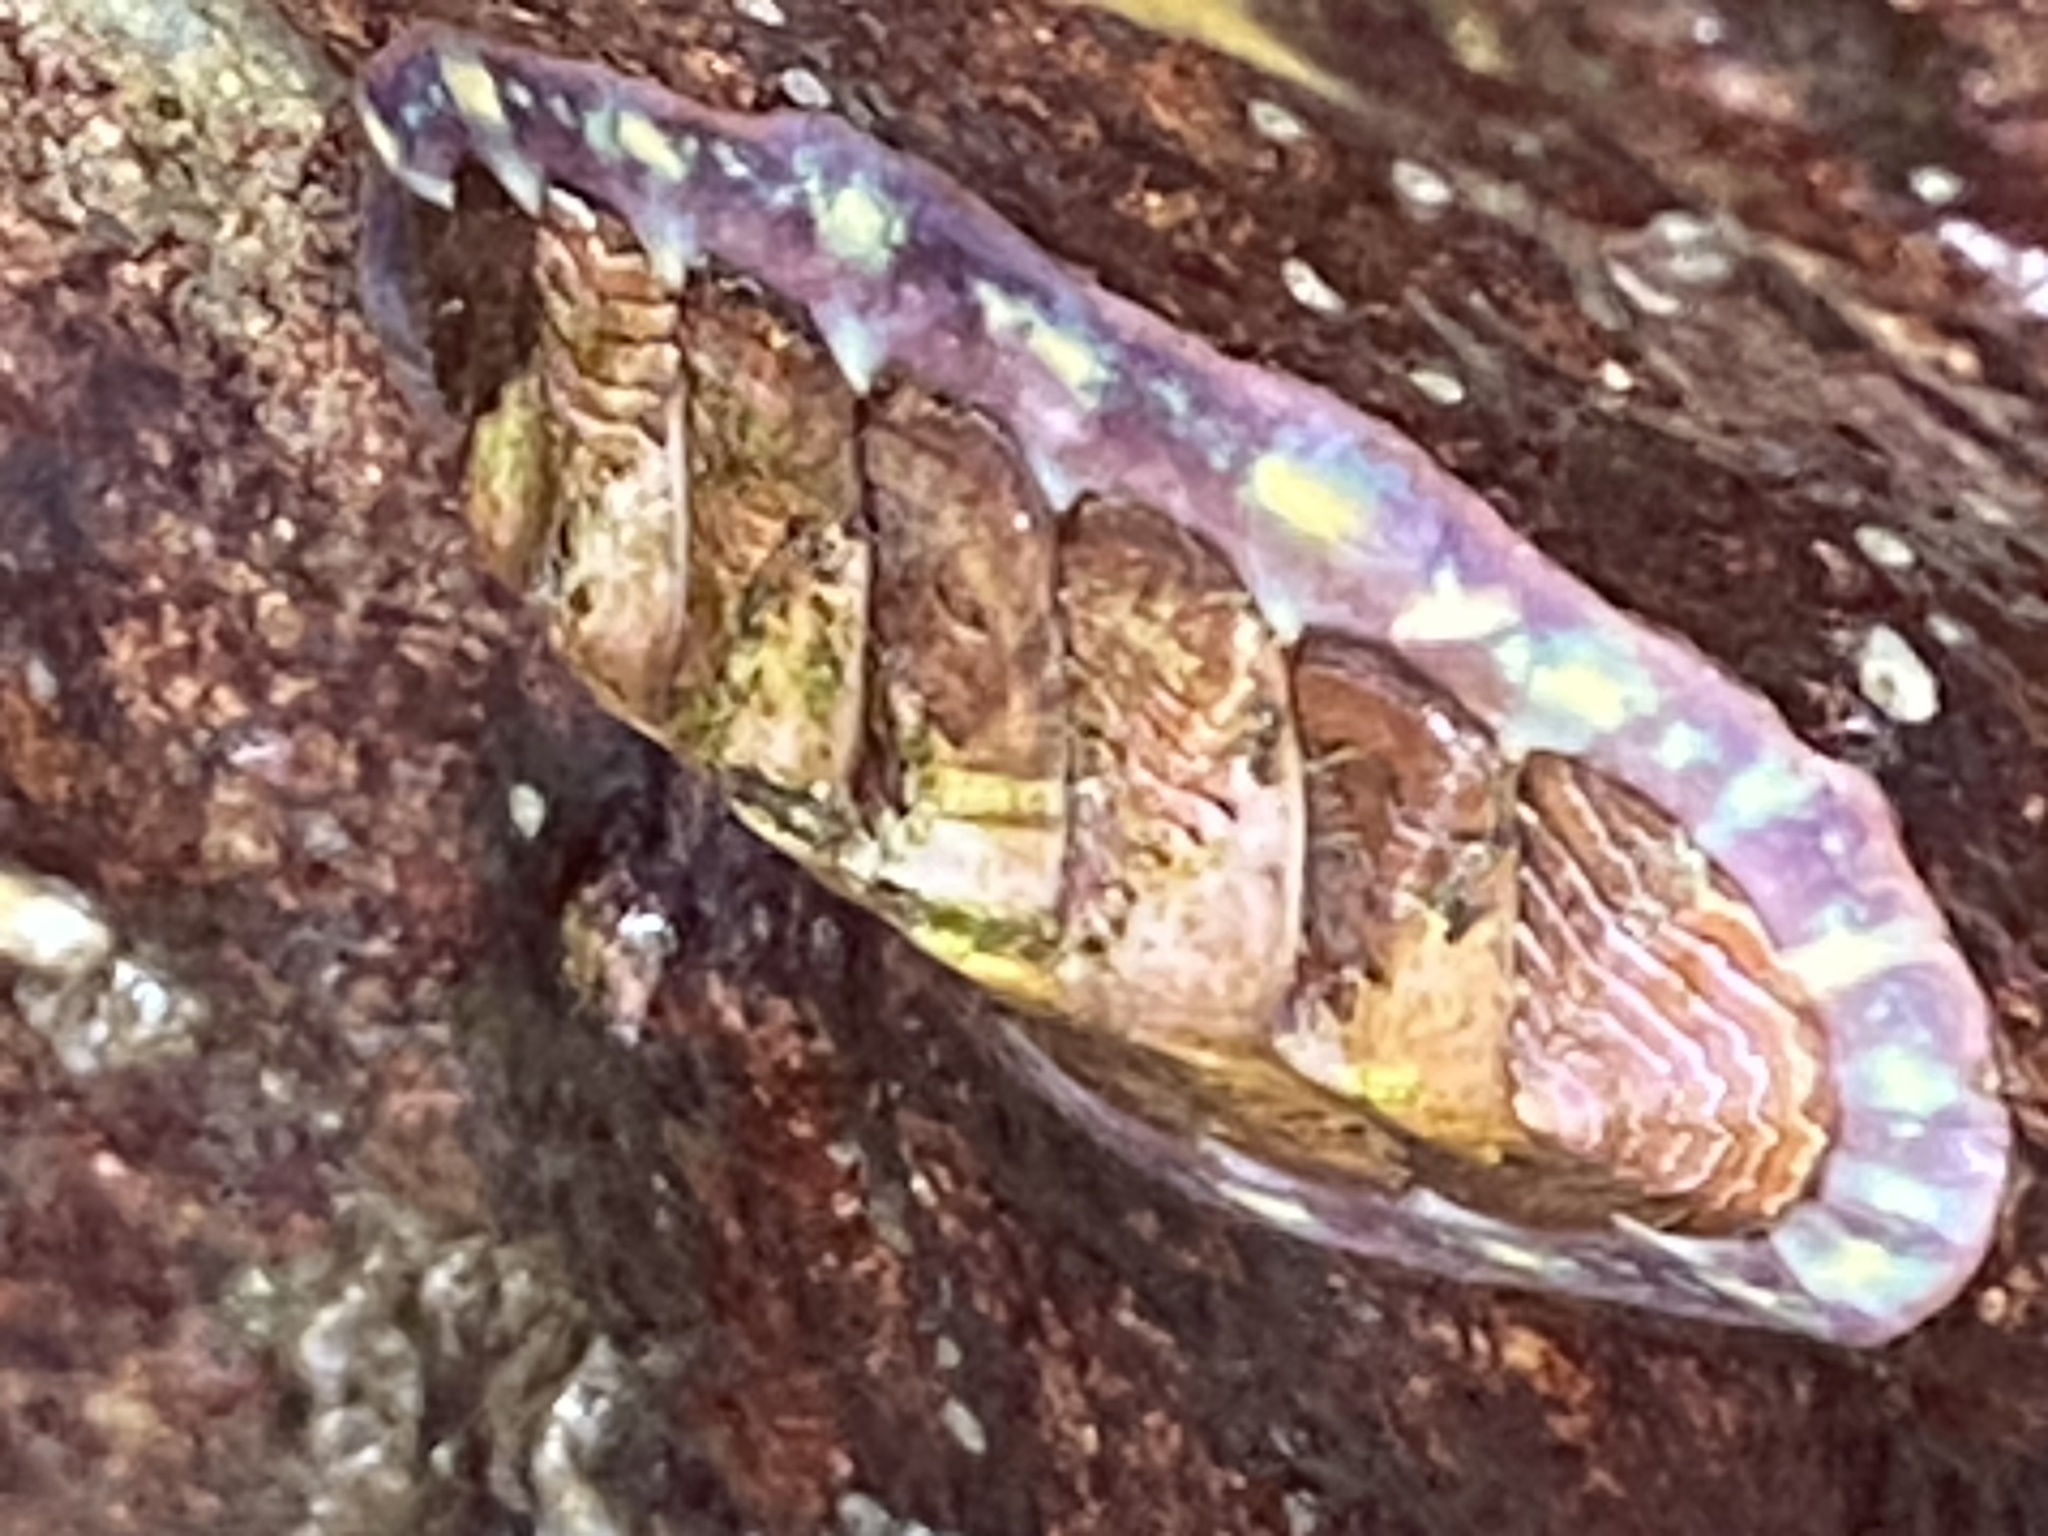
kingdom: Animalia
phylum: Mollusca
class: Polyplacophora
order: Chitonida
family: Tonicellidae
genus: Tonicella
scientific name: Tonicella lokii
